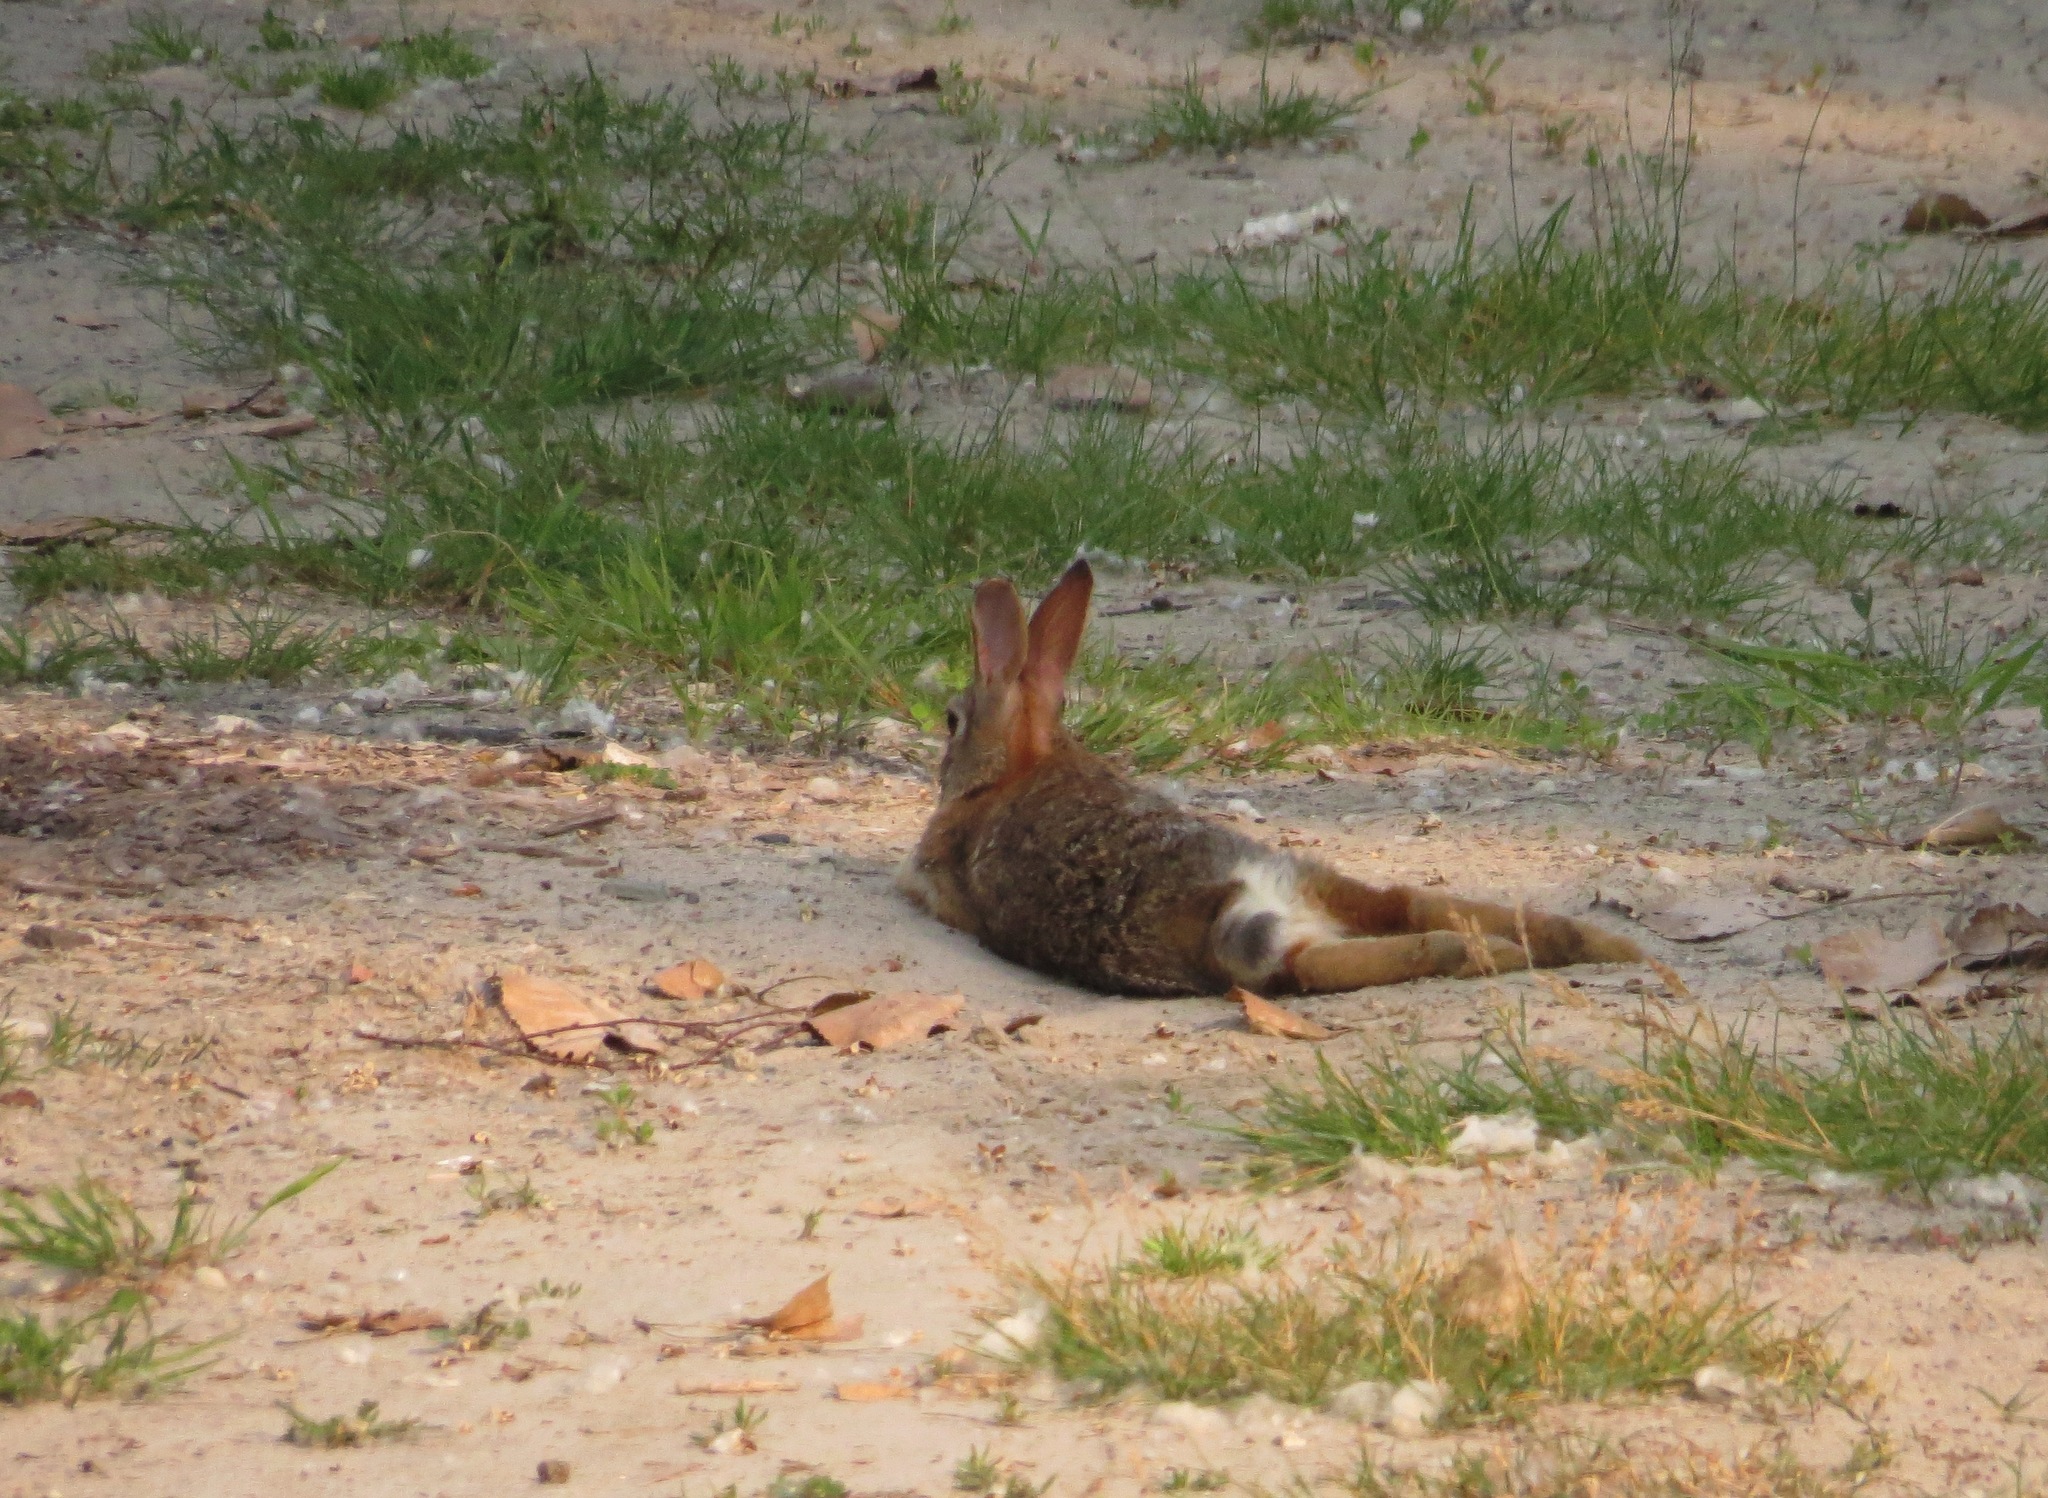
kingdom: Animalia
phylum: Chordata
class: Mammalia
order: Lagomorpha
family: Leporidae
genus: Sylvilagus
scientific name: Sylvilagus floridanus
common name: Eastern cottontail
